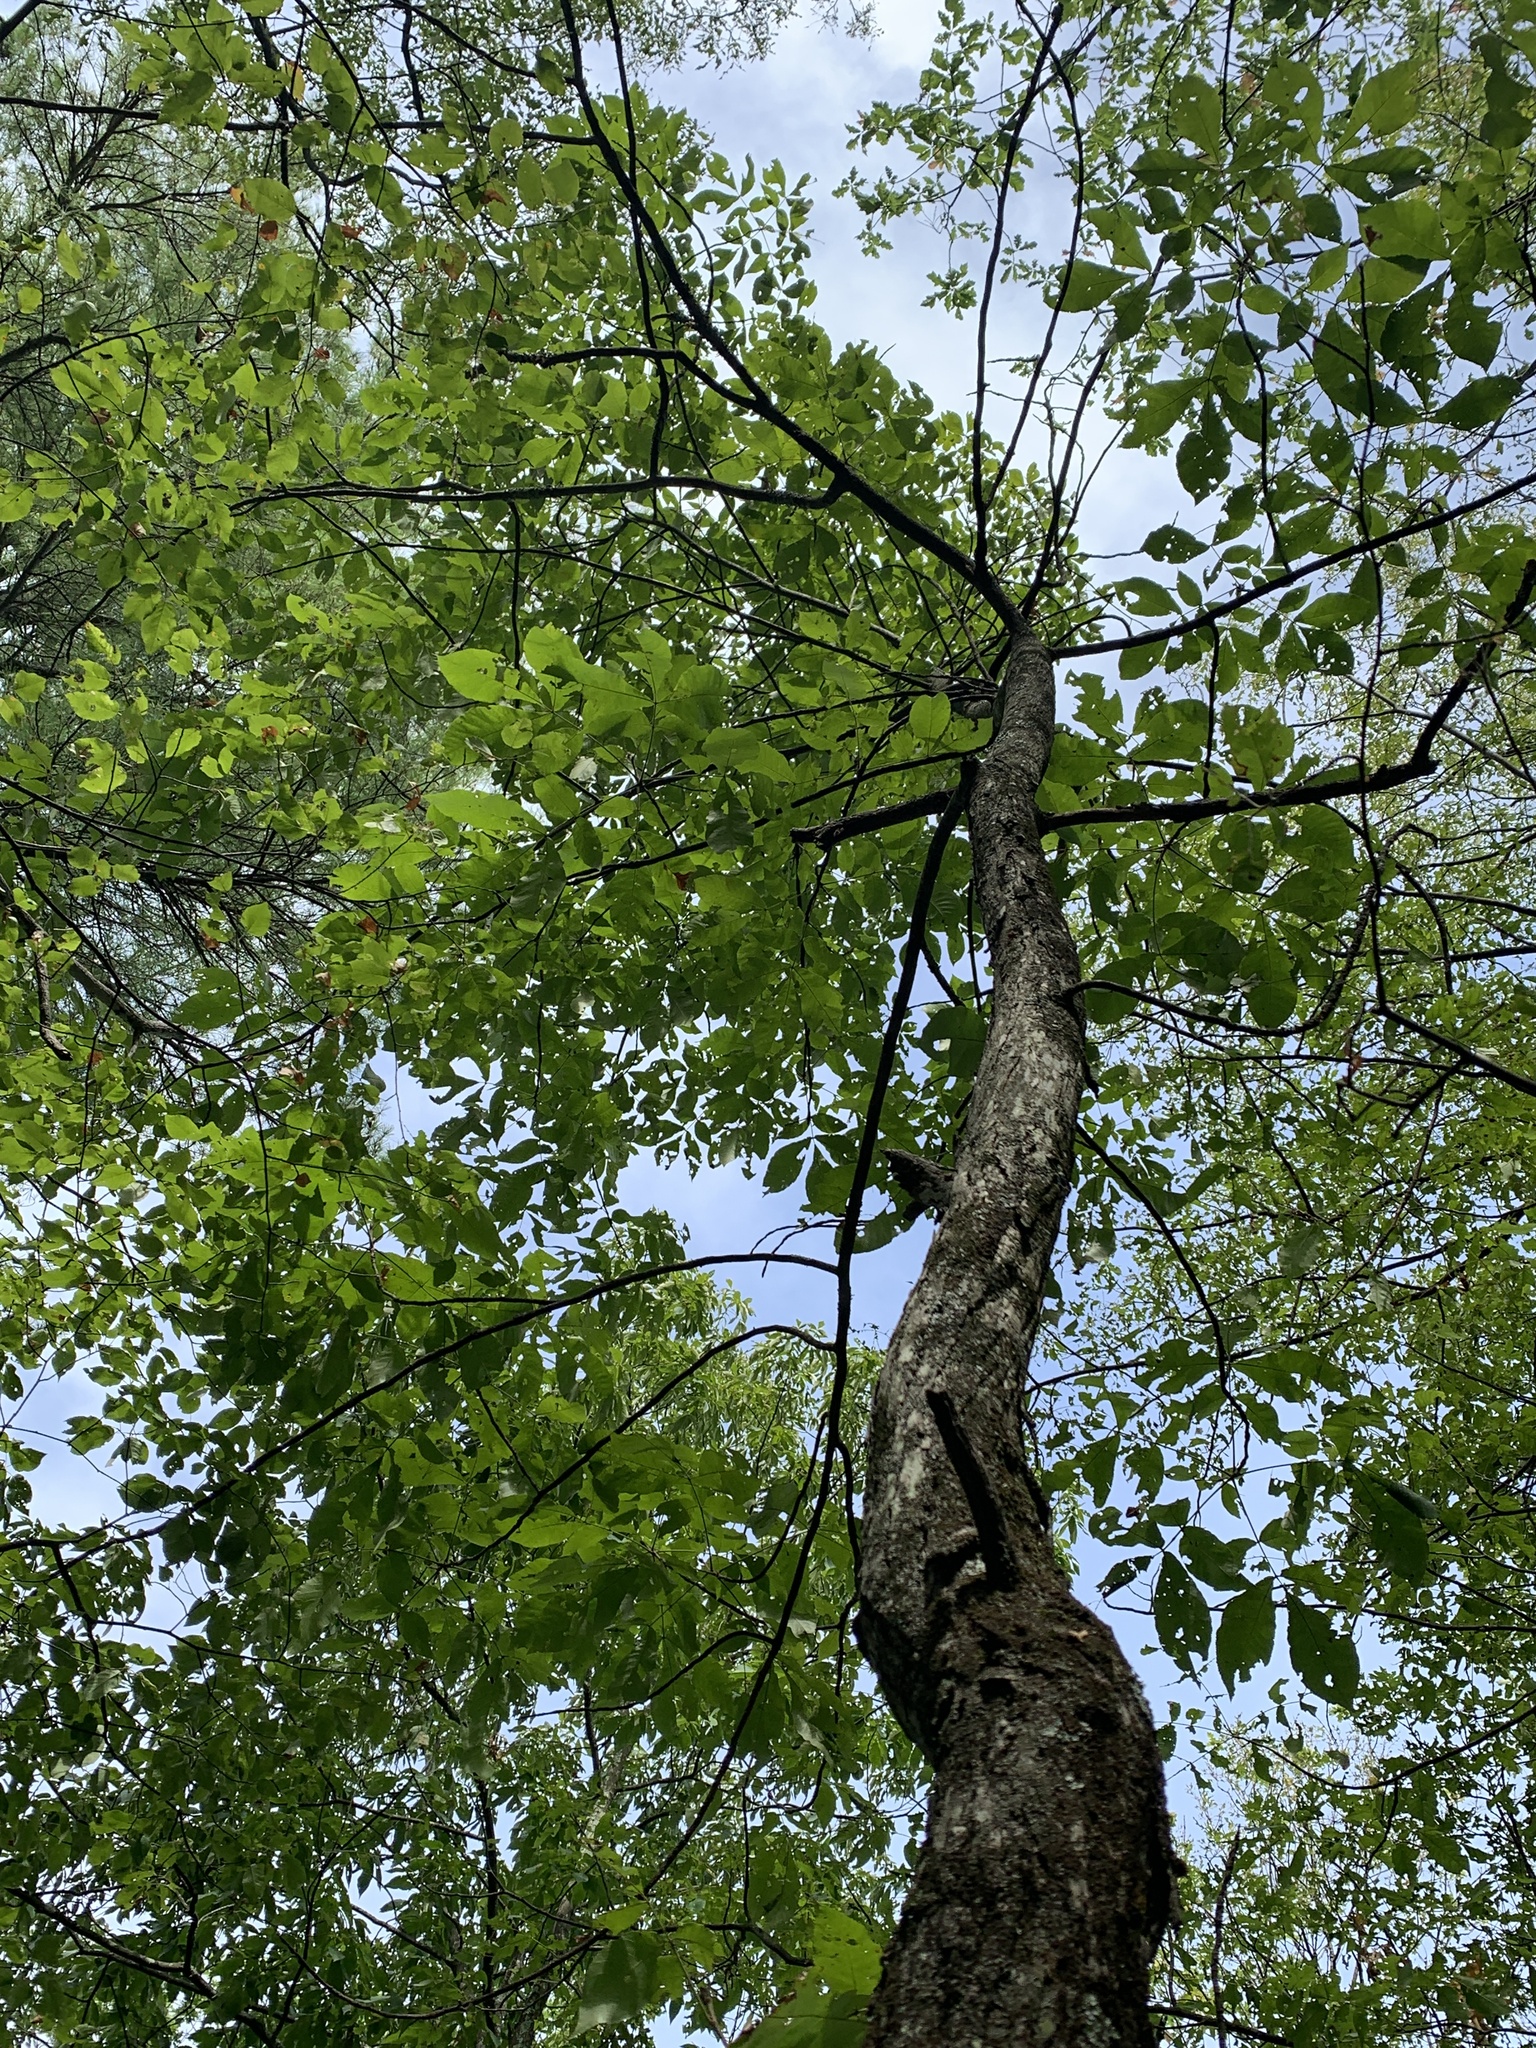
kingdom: Plantae
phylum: Tracheophyta
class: Magnoliopsida
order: Fagales
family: Juglandaceae
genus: Carya
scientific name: Carya ovata
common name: Shagbark hickory
